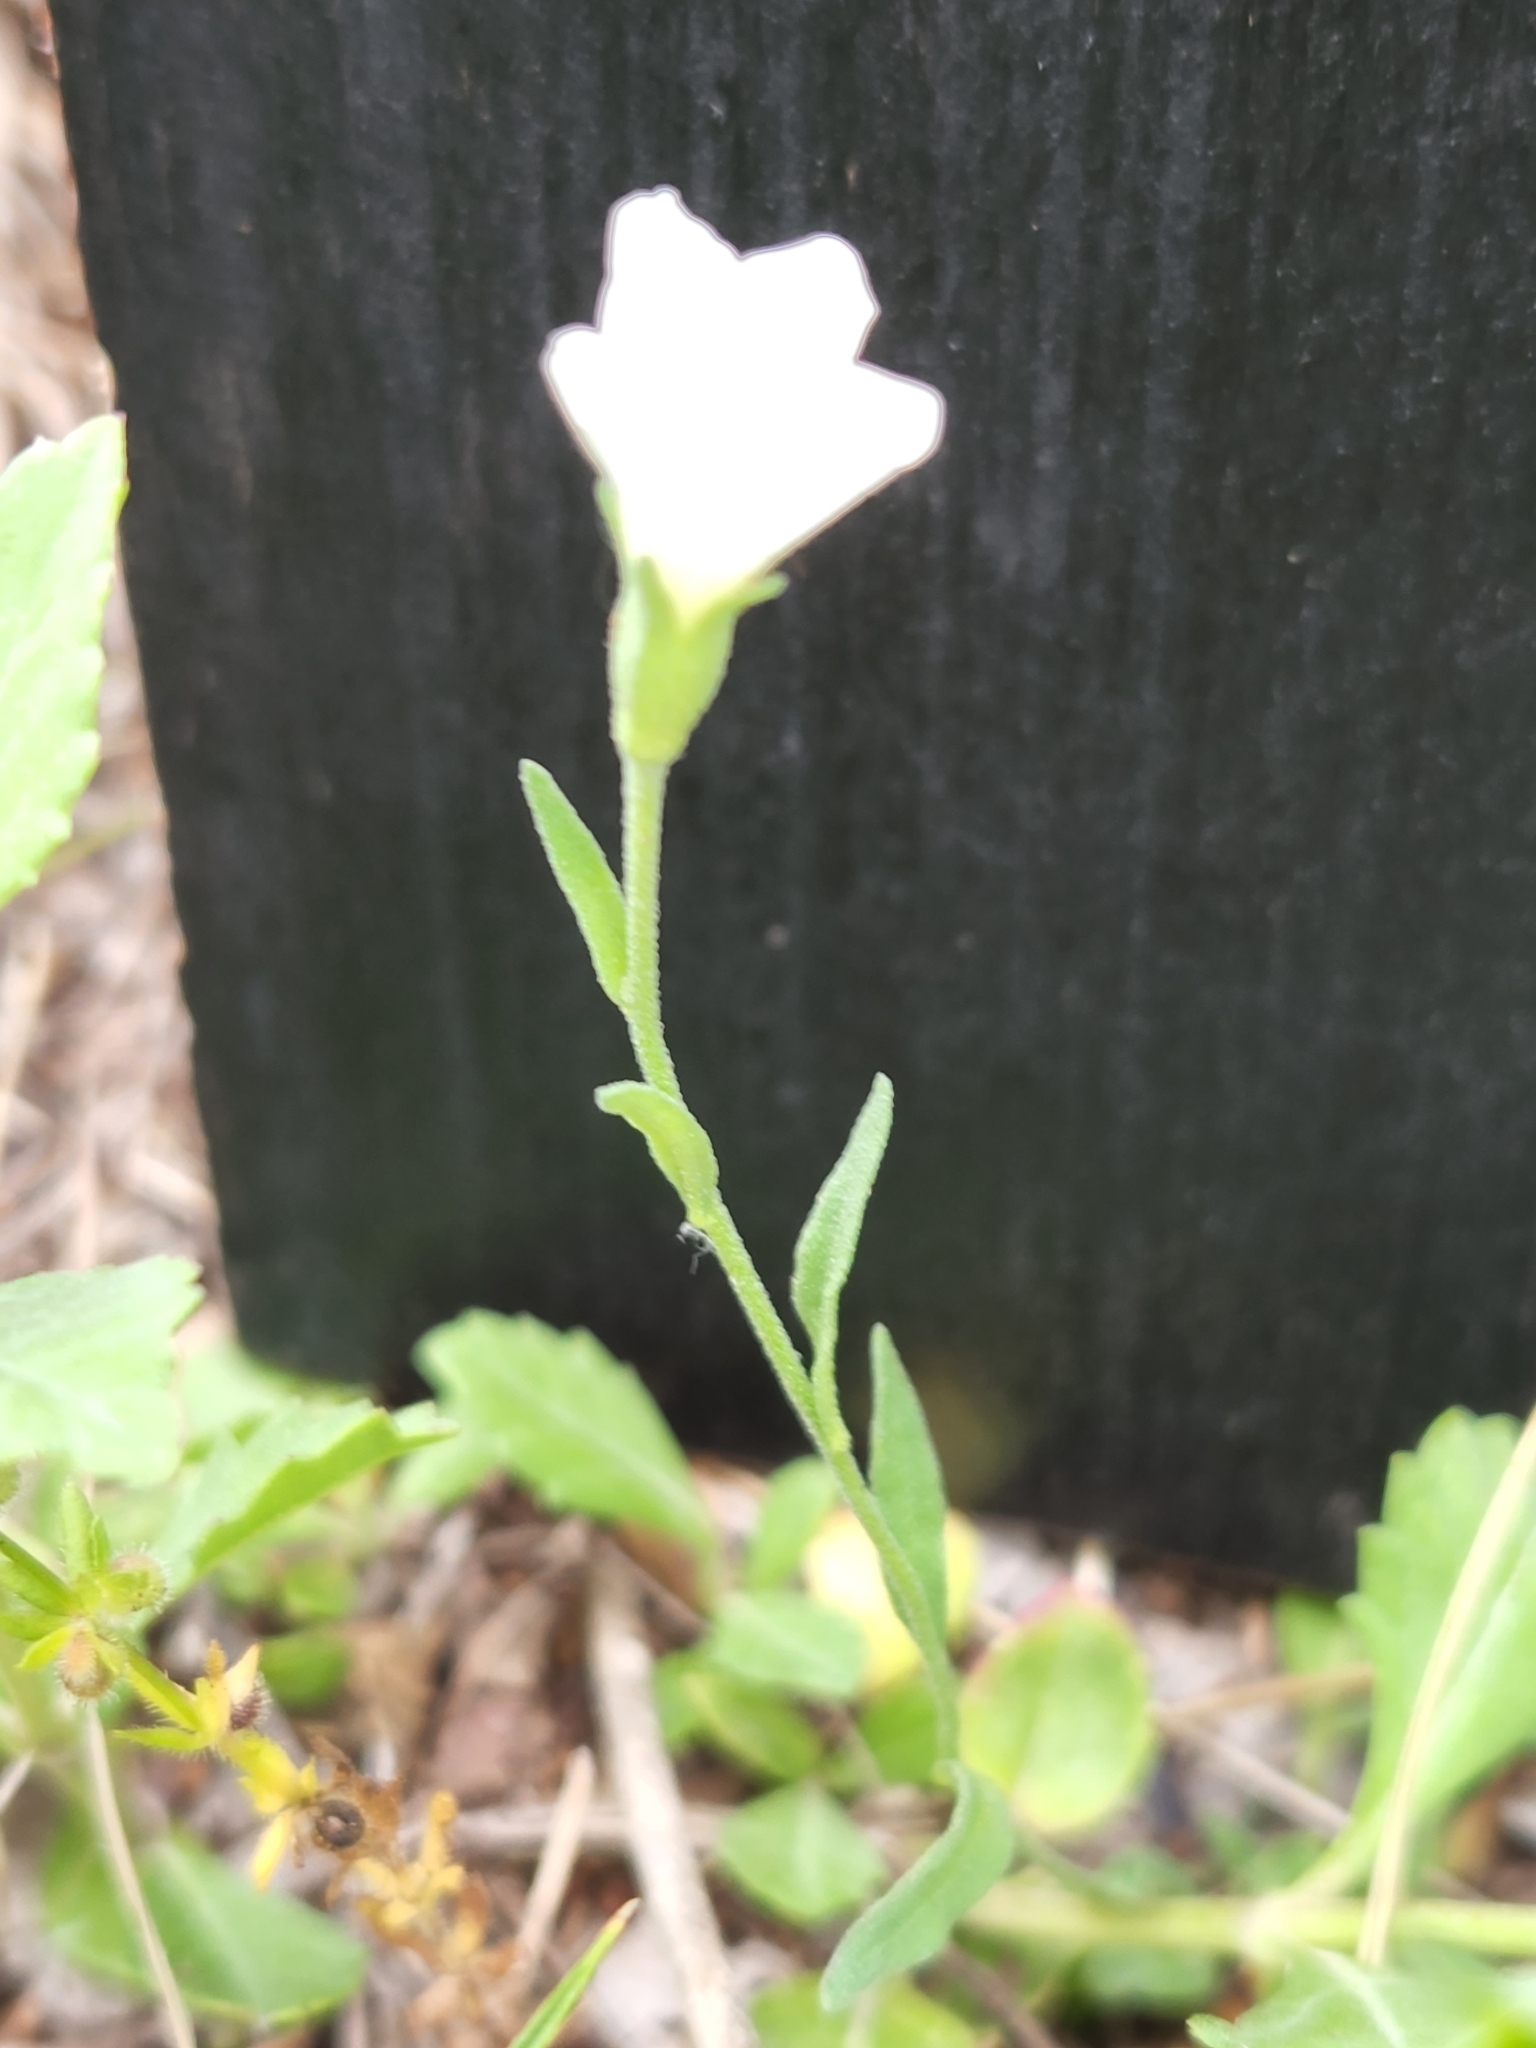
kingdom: Plantae
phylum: Tracheophyta
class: Magnoliopsida
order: Solanales
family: Solanaceae
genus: Salpiglossis
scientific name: Salpiglossis erecta
